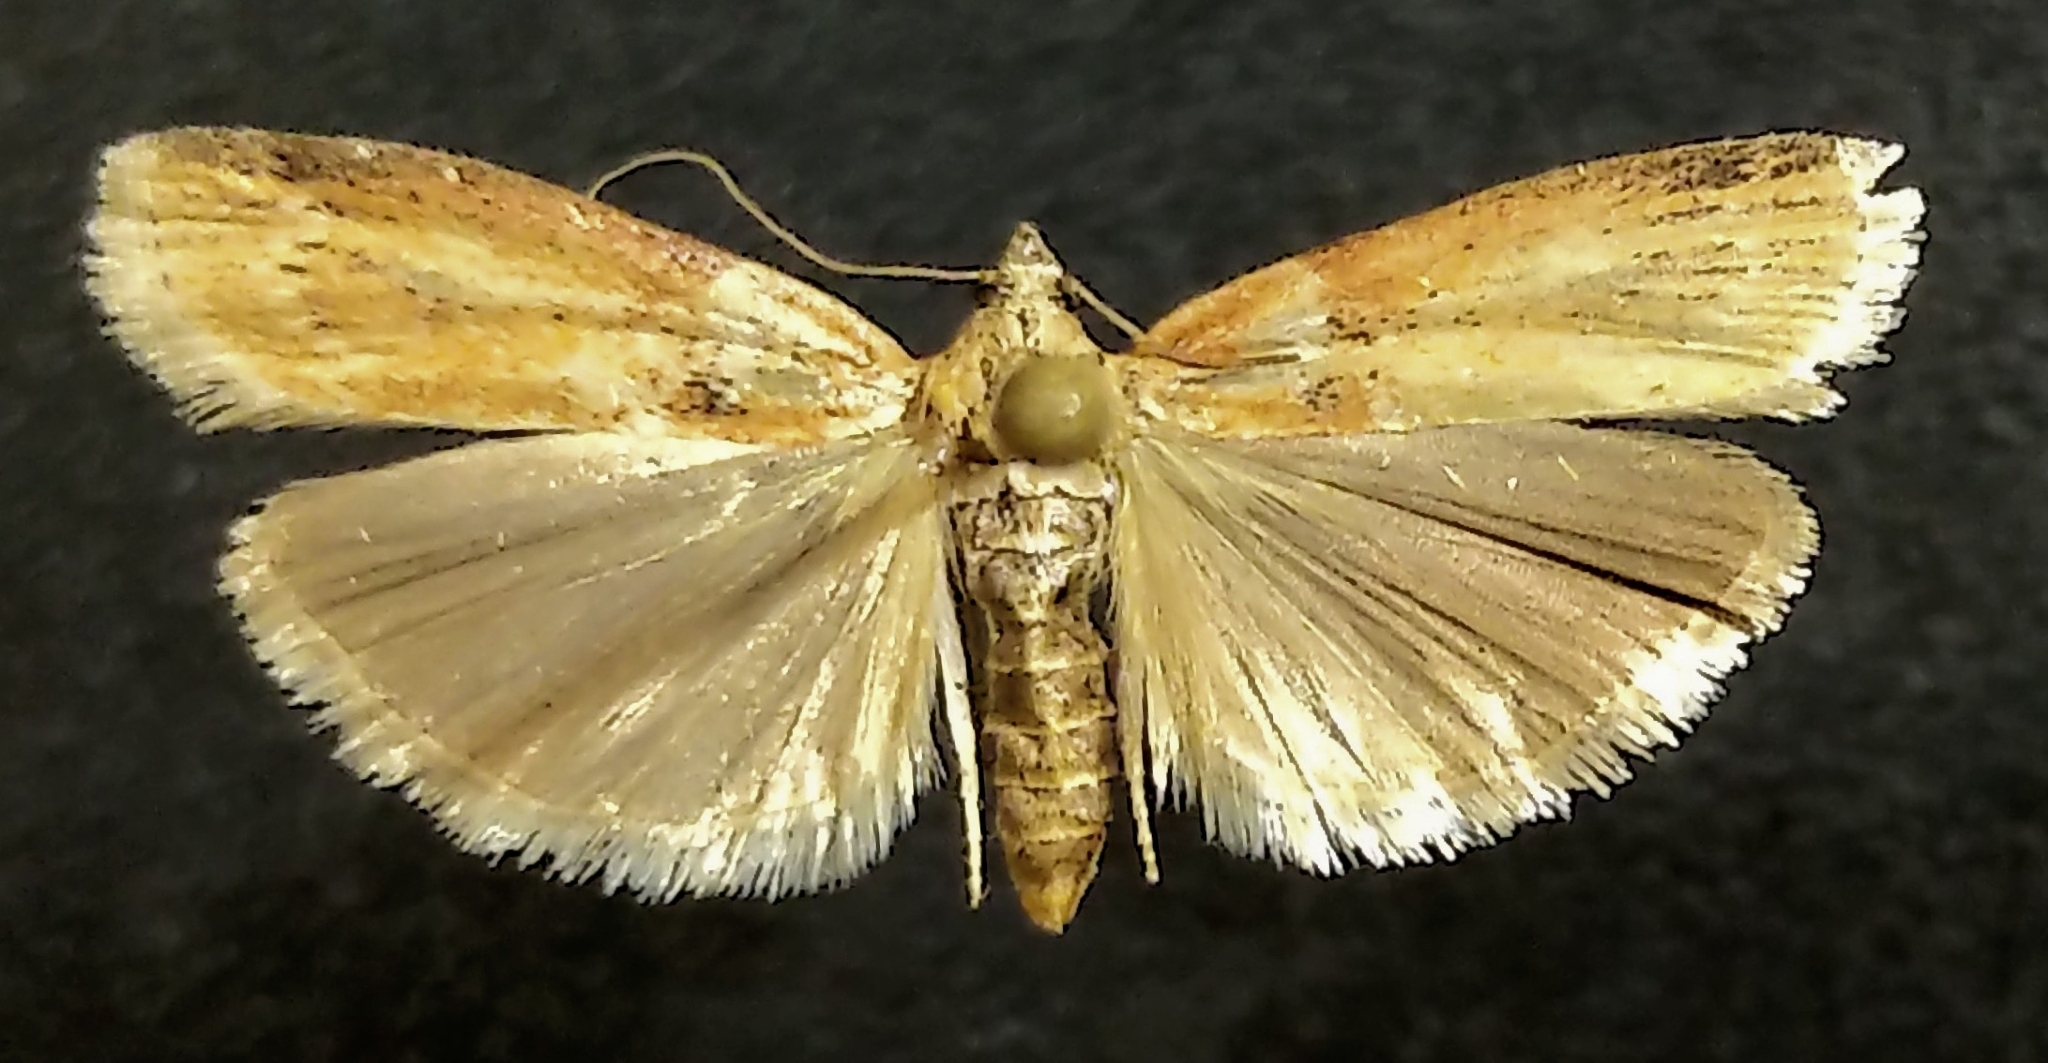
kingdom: Animalia
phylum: Arthropoda
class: Insecta
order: Lepidoptera
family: Pyralidae
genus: Sciota
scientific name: Sciota
